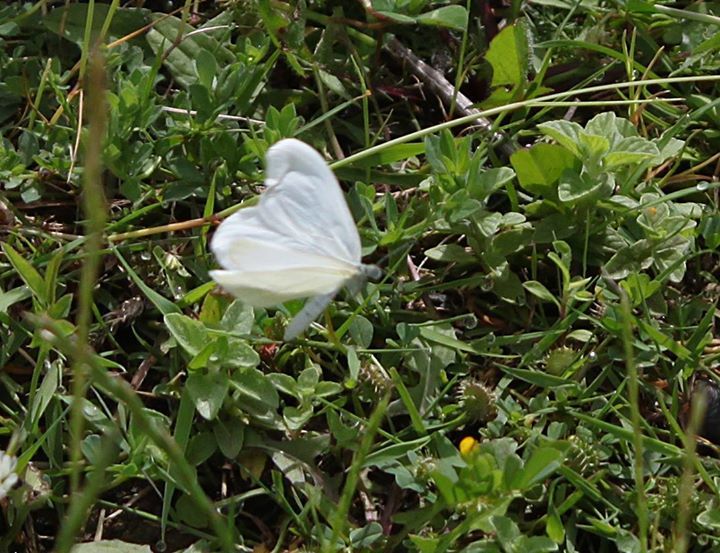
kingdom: Animalia
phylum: Arthropoda
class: Insecta
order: Lepidoptera
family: Pieridae
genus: Leptidea
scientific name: Leptidea
